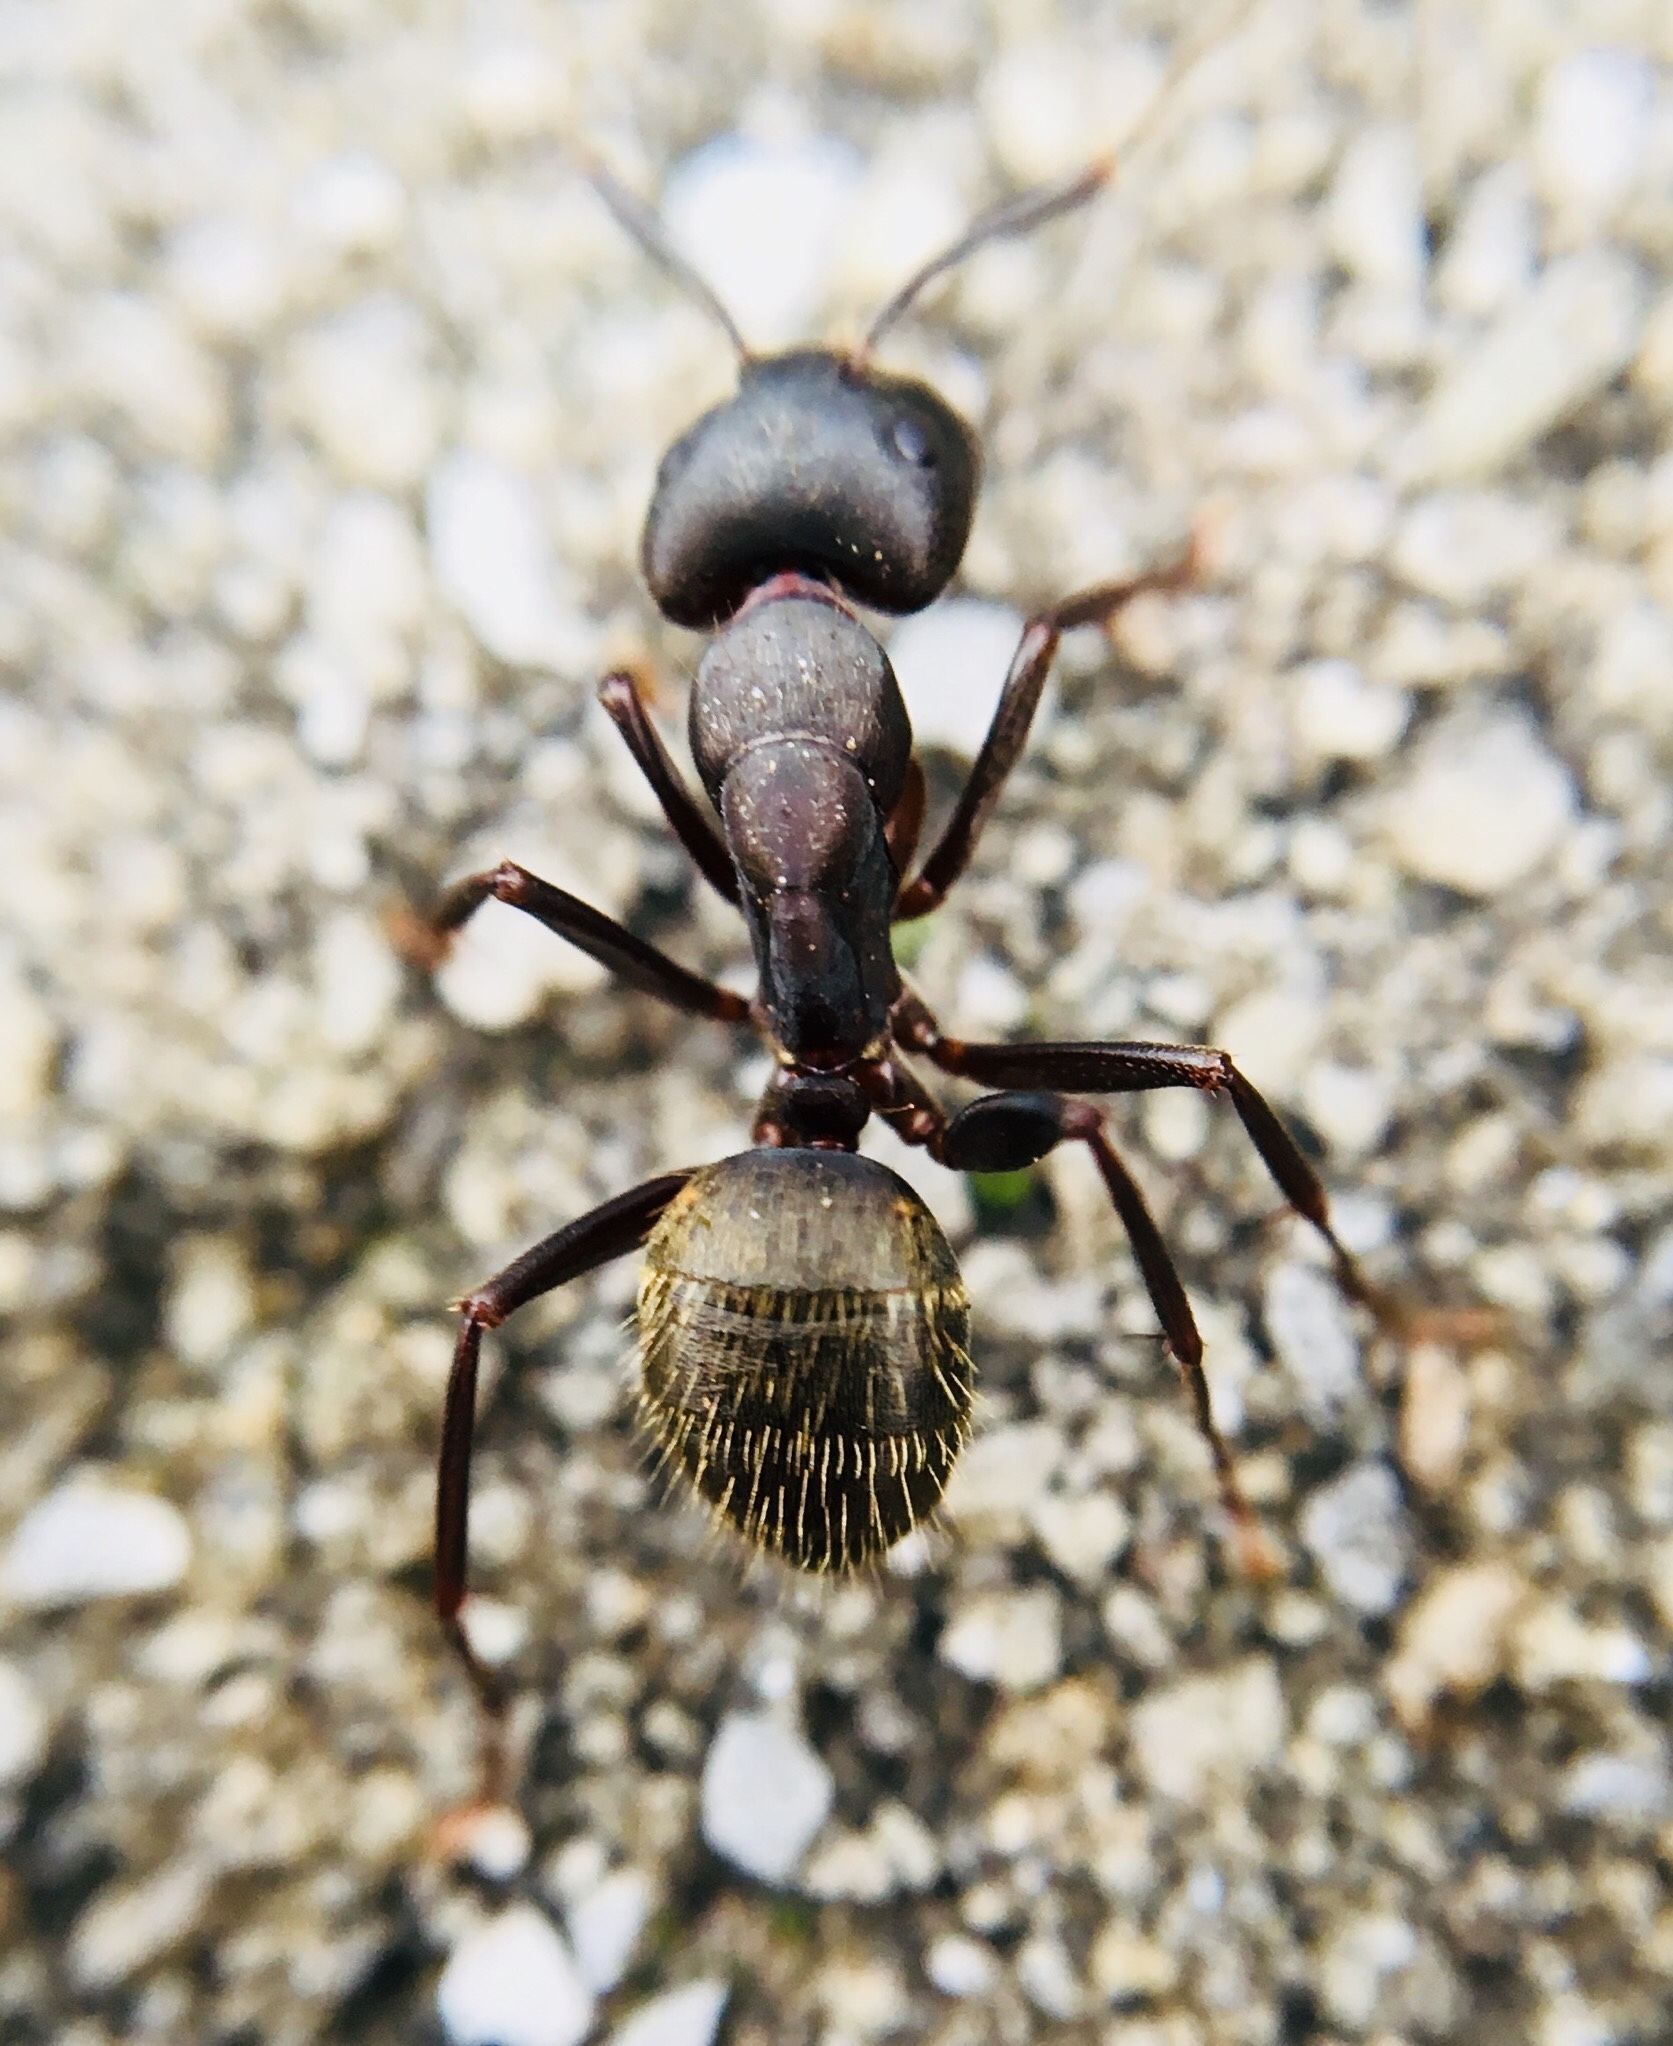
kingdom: Animalia
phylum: Arthropoda
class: Insecta
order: Hymenoptera
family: Formicidae
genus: Camponotus
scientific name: Camponotus pennsylvanicus
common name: Black carpenter ant
